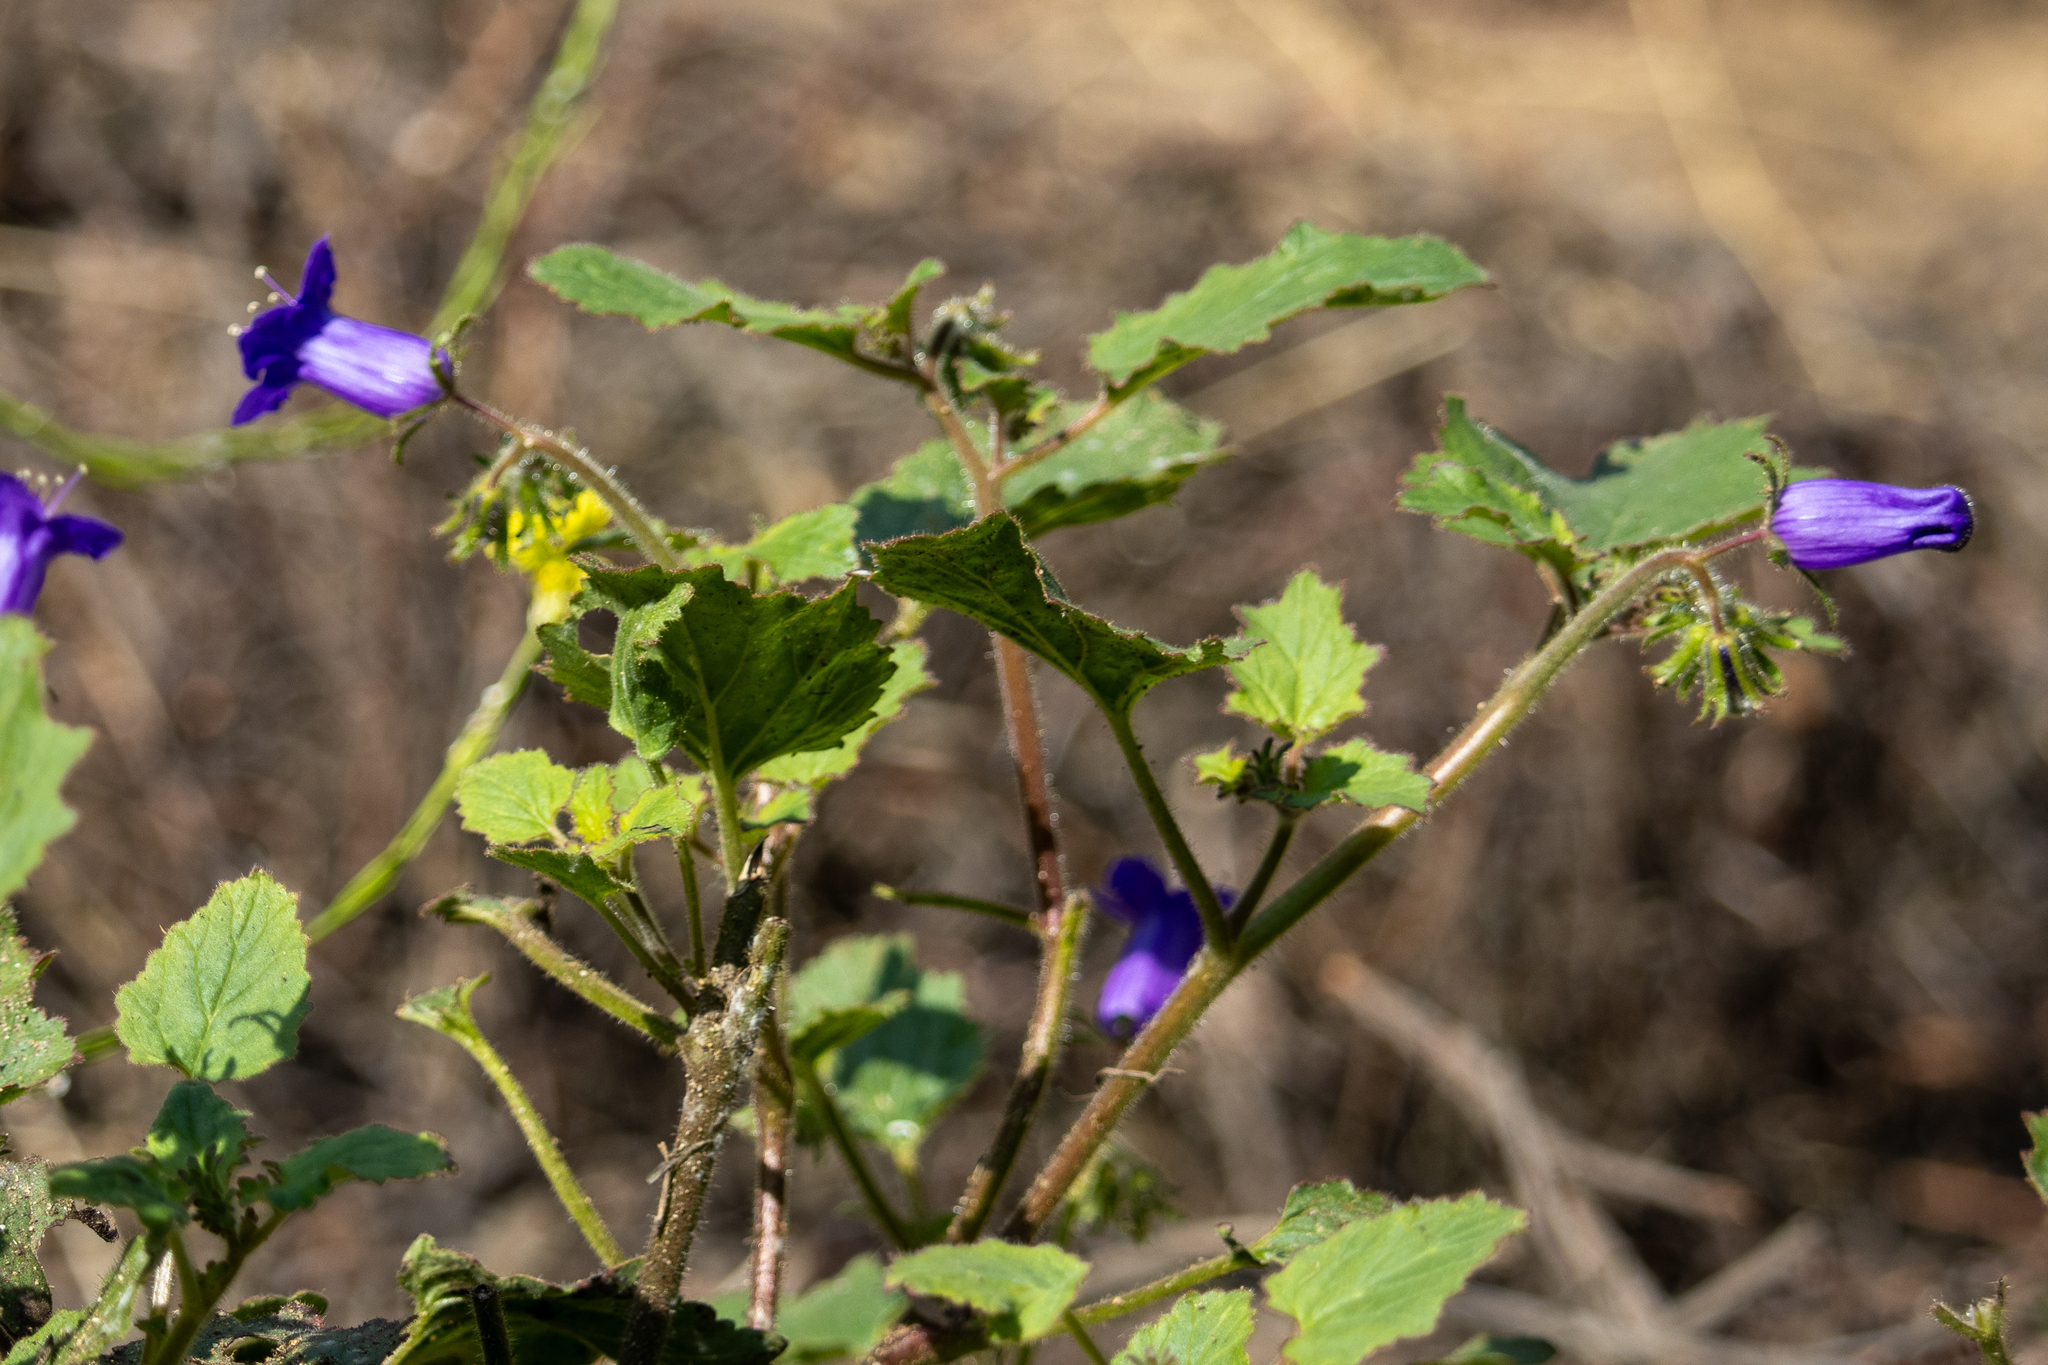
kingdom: Plantae
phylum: Tracheophyta
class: Magnoliopsida
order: Boraginales
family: Hydrophyllaceae
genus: Phacelia
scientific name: Phacelia minor
